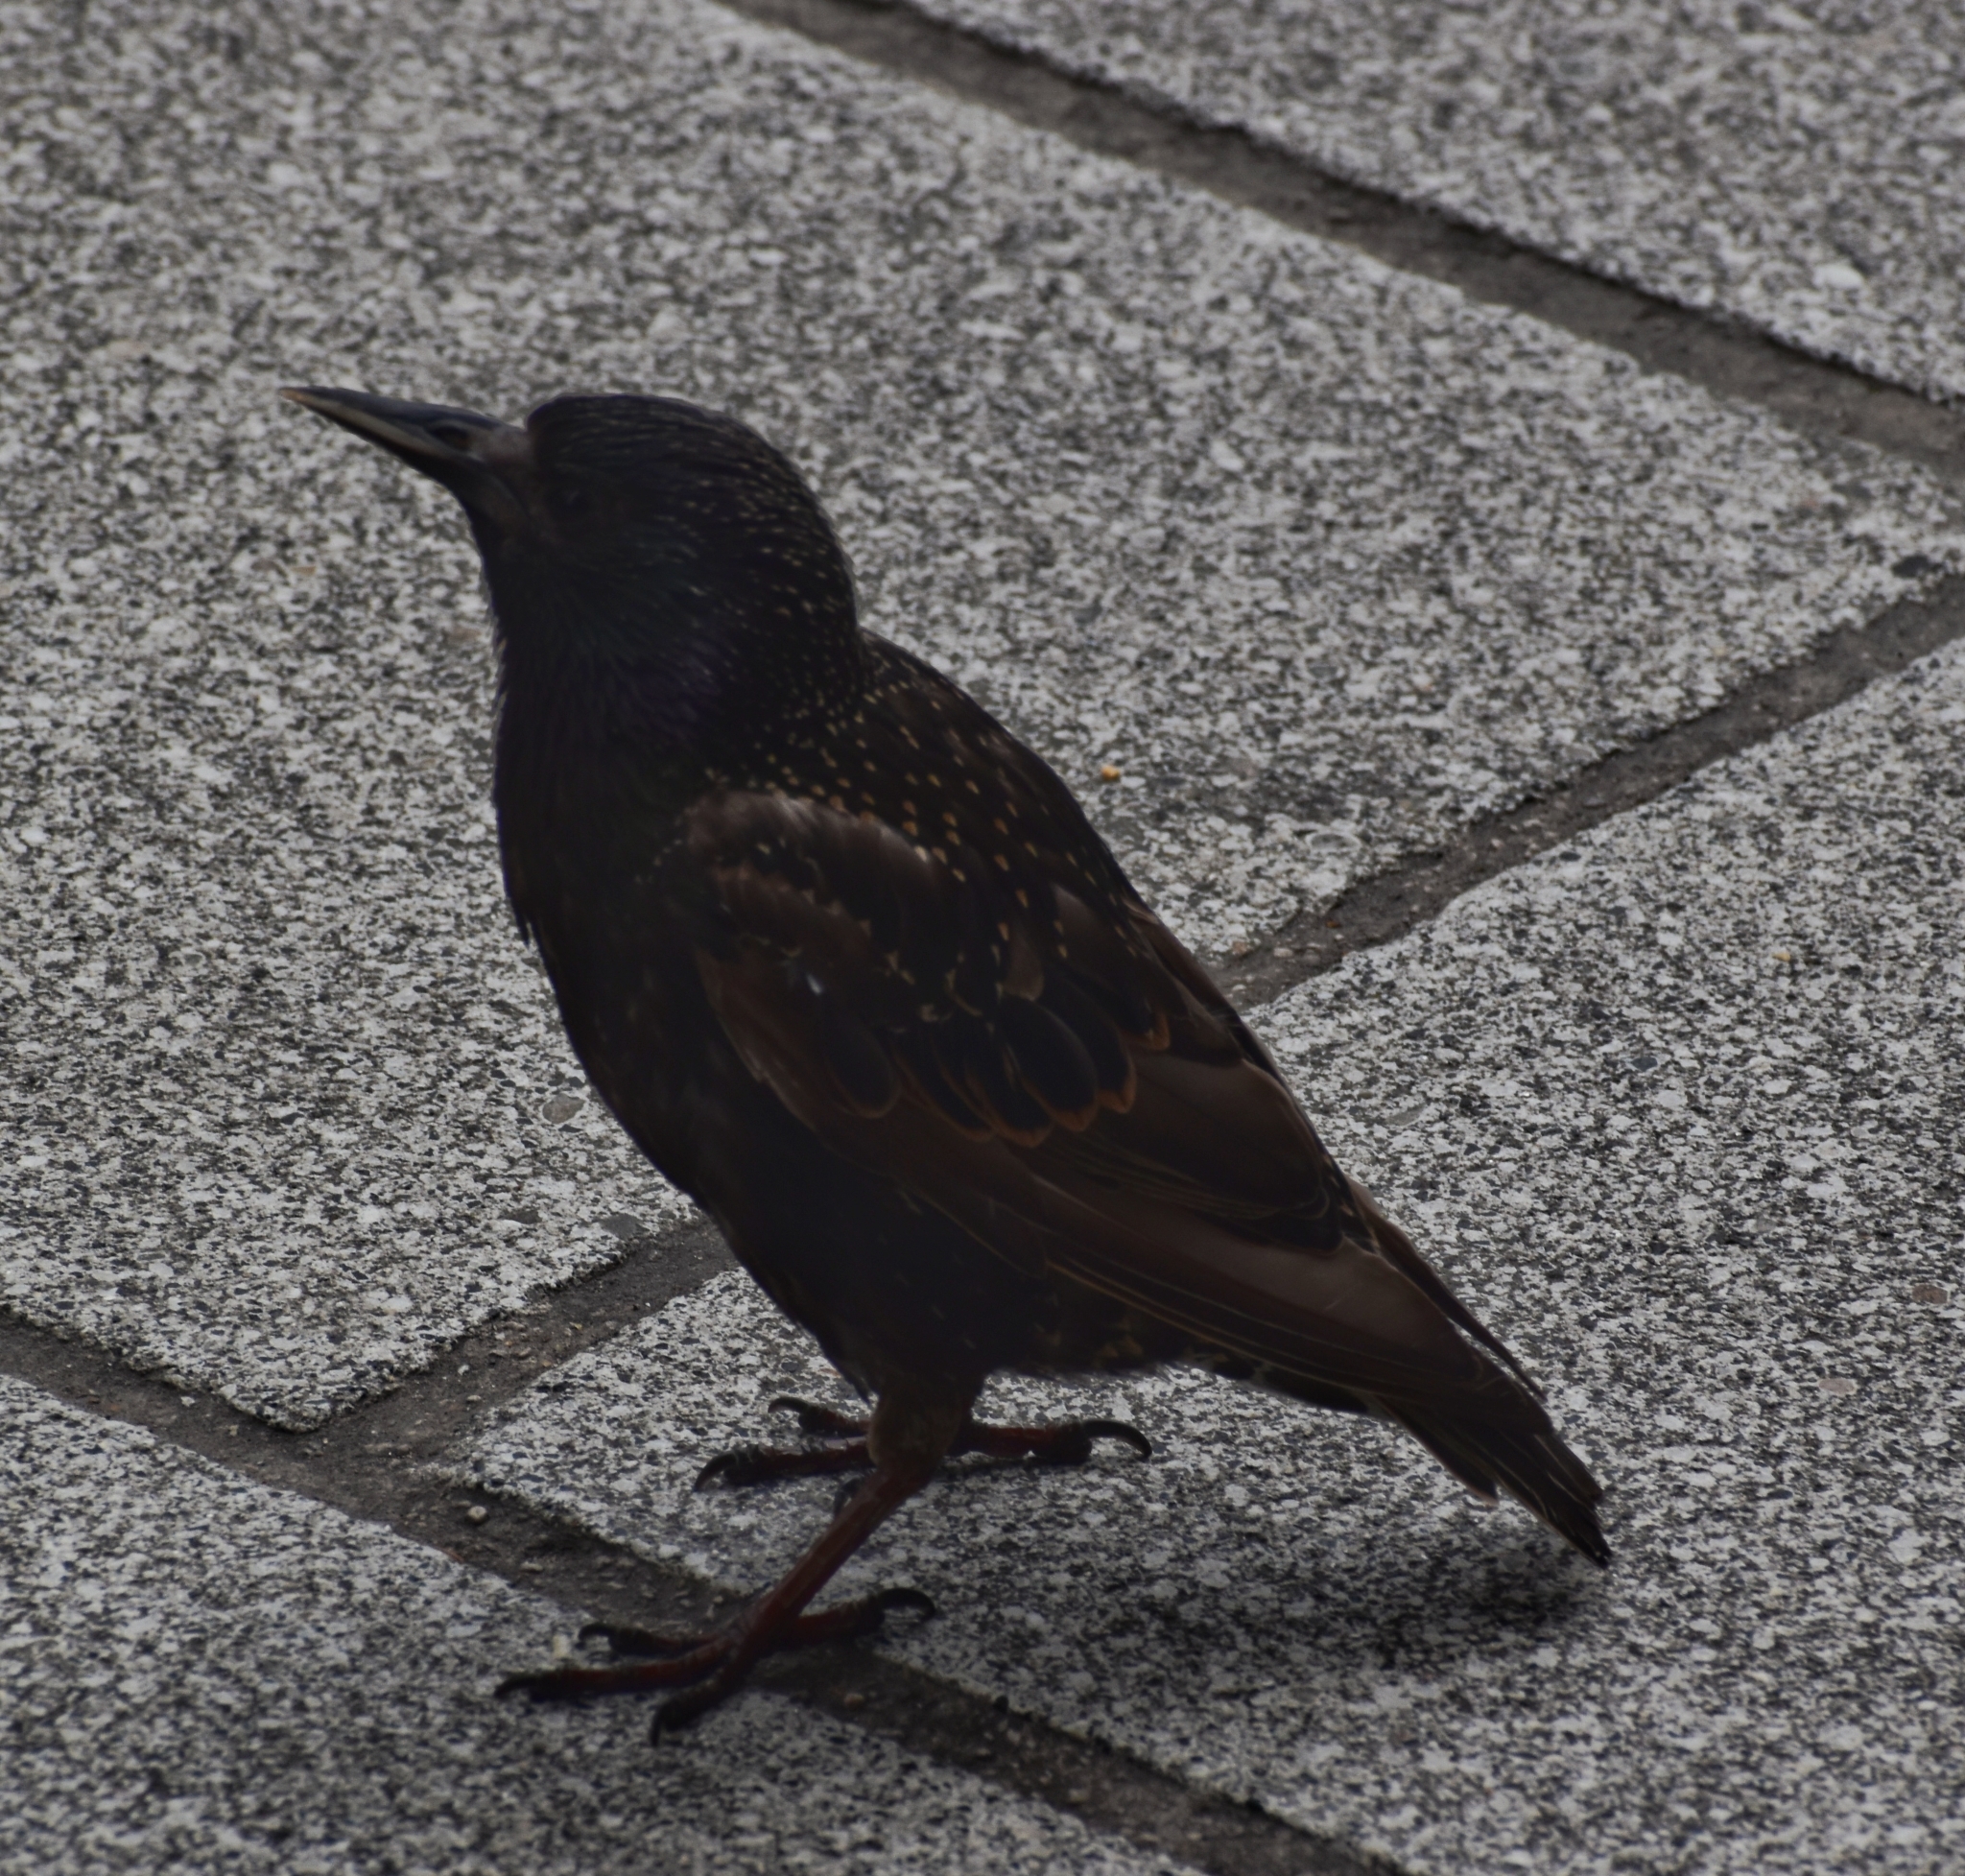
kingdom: Animalia
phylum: Chordata
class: Aves
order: Passeriformes
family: Sturnidae
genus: Sturnus
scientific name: Sturnus vulgaris
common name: Common starling
